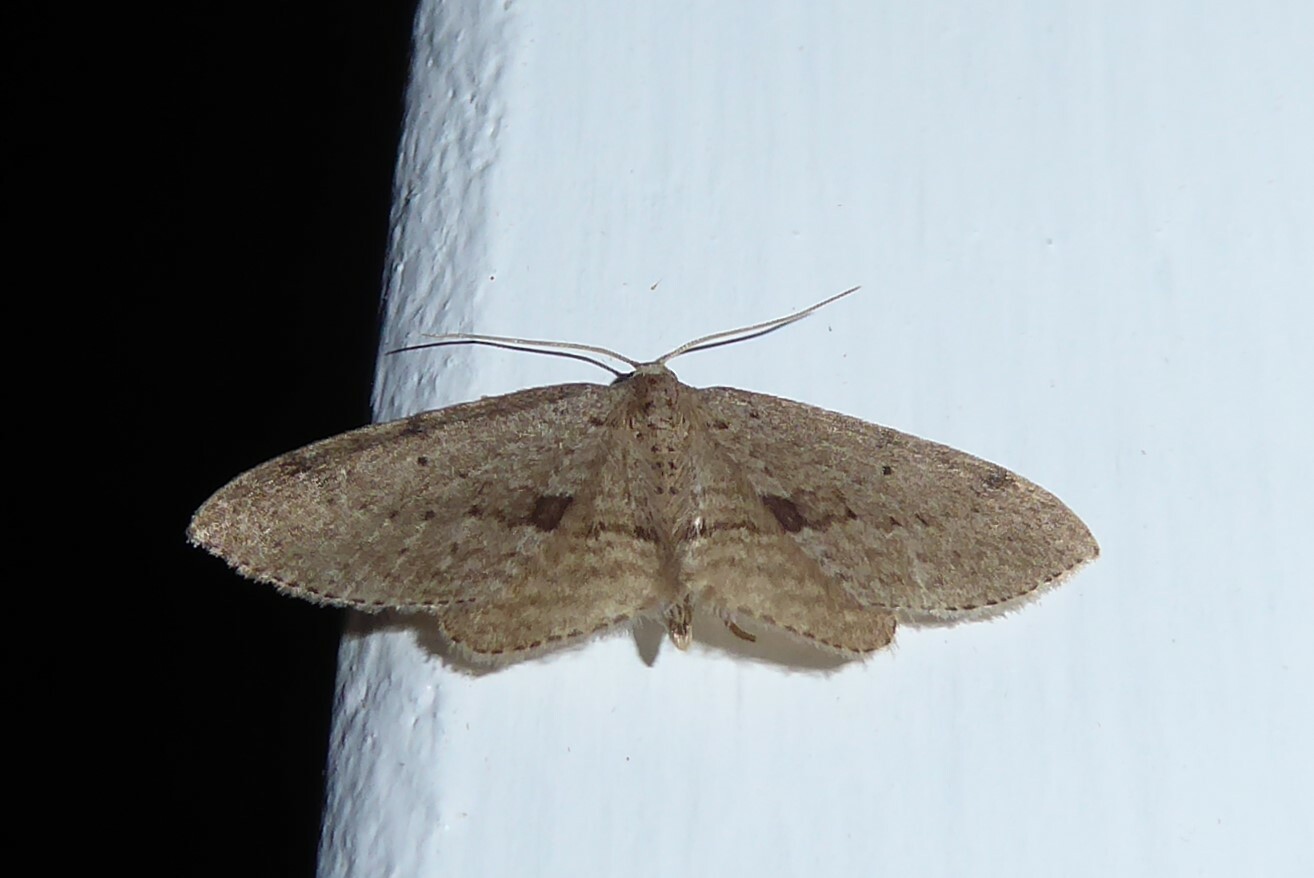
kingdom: Animalia
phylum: Arthropoda
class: Insecta
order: Lepidoptera
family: Geometridae
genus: Poecilasthena
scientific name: Poecilasthena schistaria
